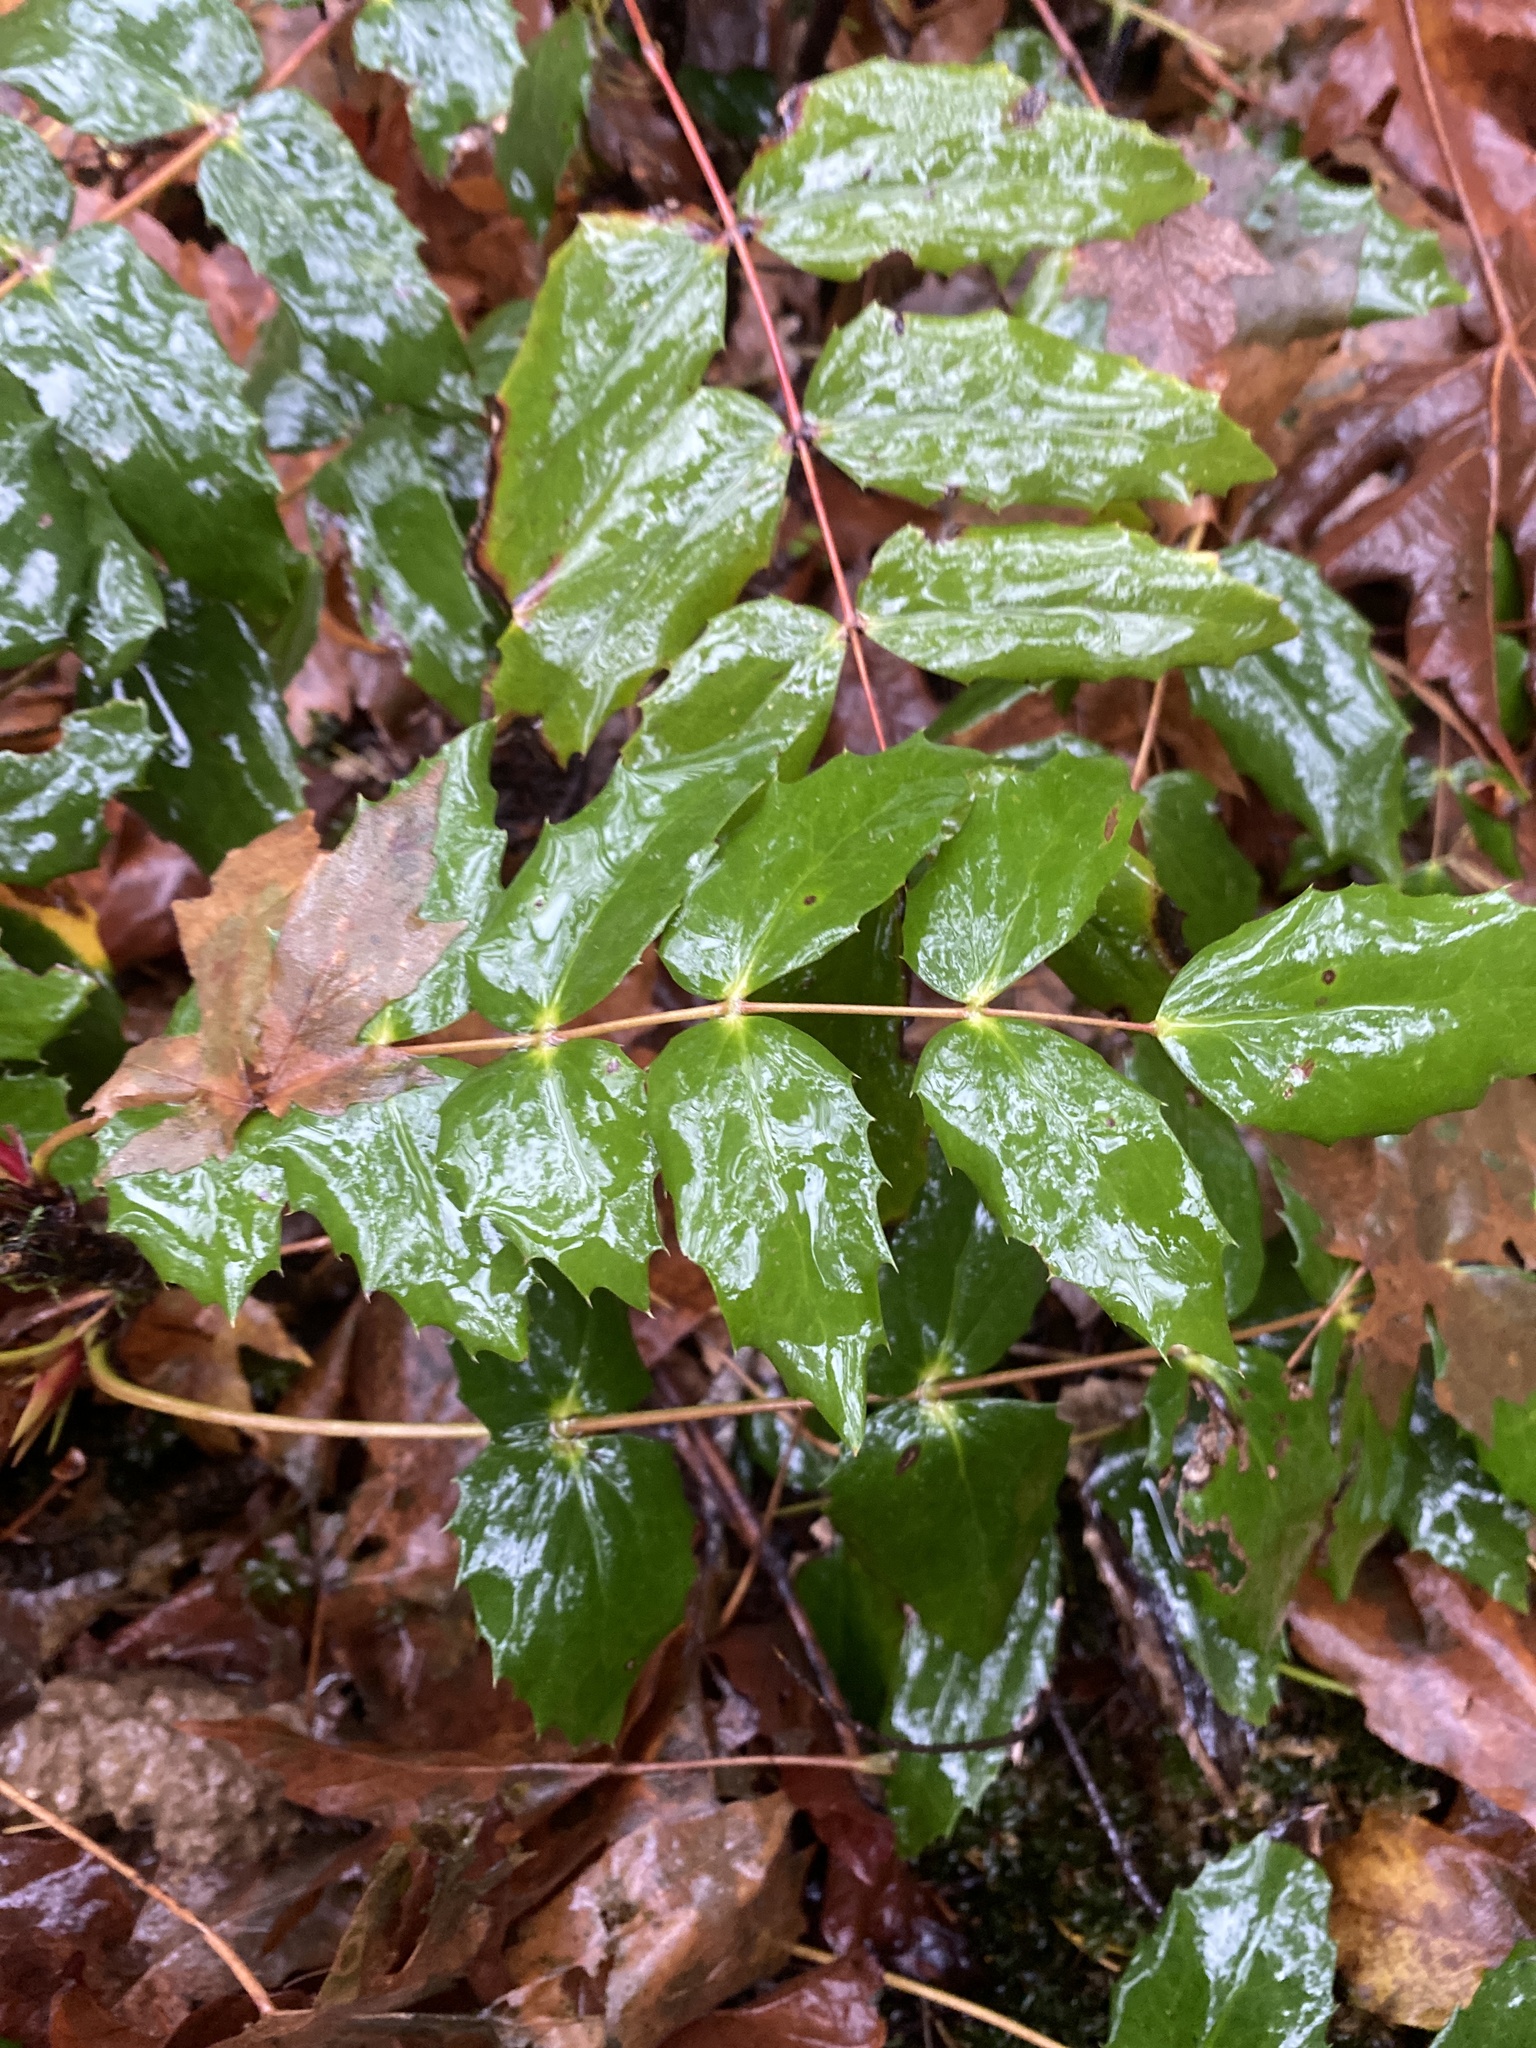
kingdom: Plantae
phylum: Tracheophyta
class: Magnoliopsida
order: Ranunculales
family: Berberidaceae
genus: Mahonia
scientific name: Mahonia nervosa
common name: Cascade oregon-grape
